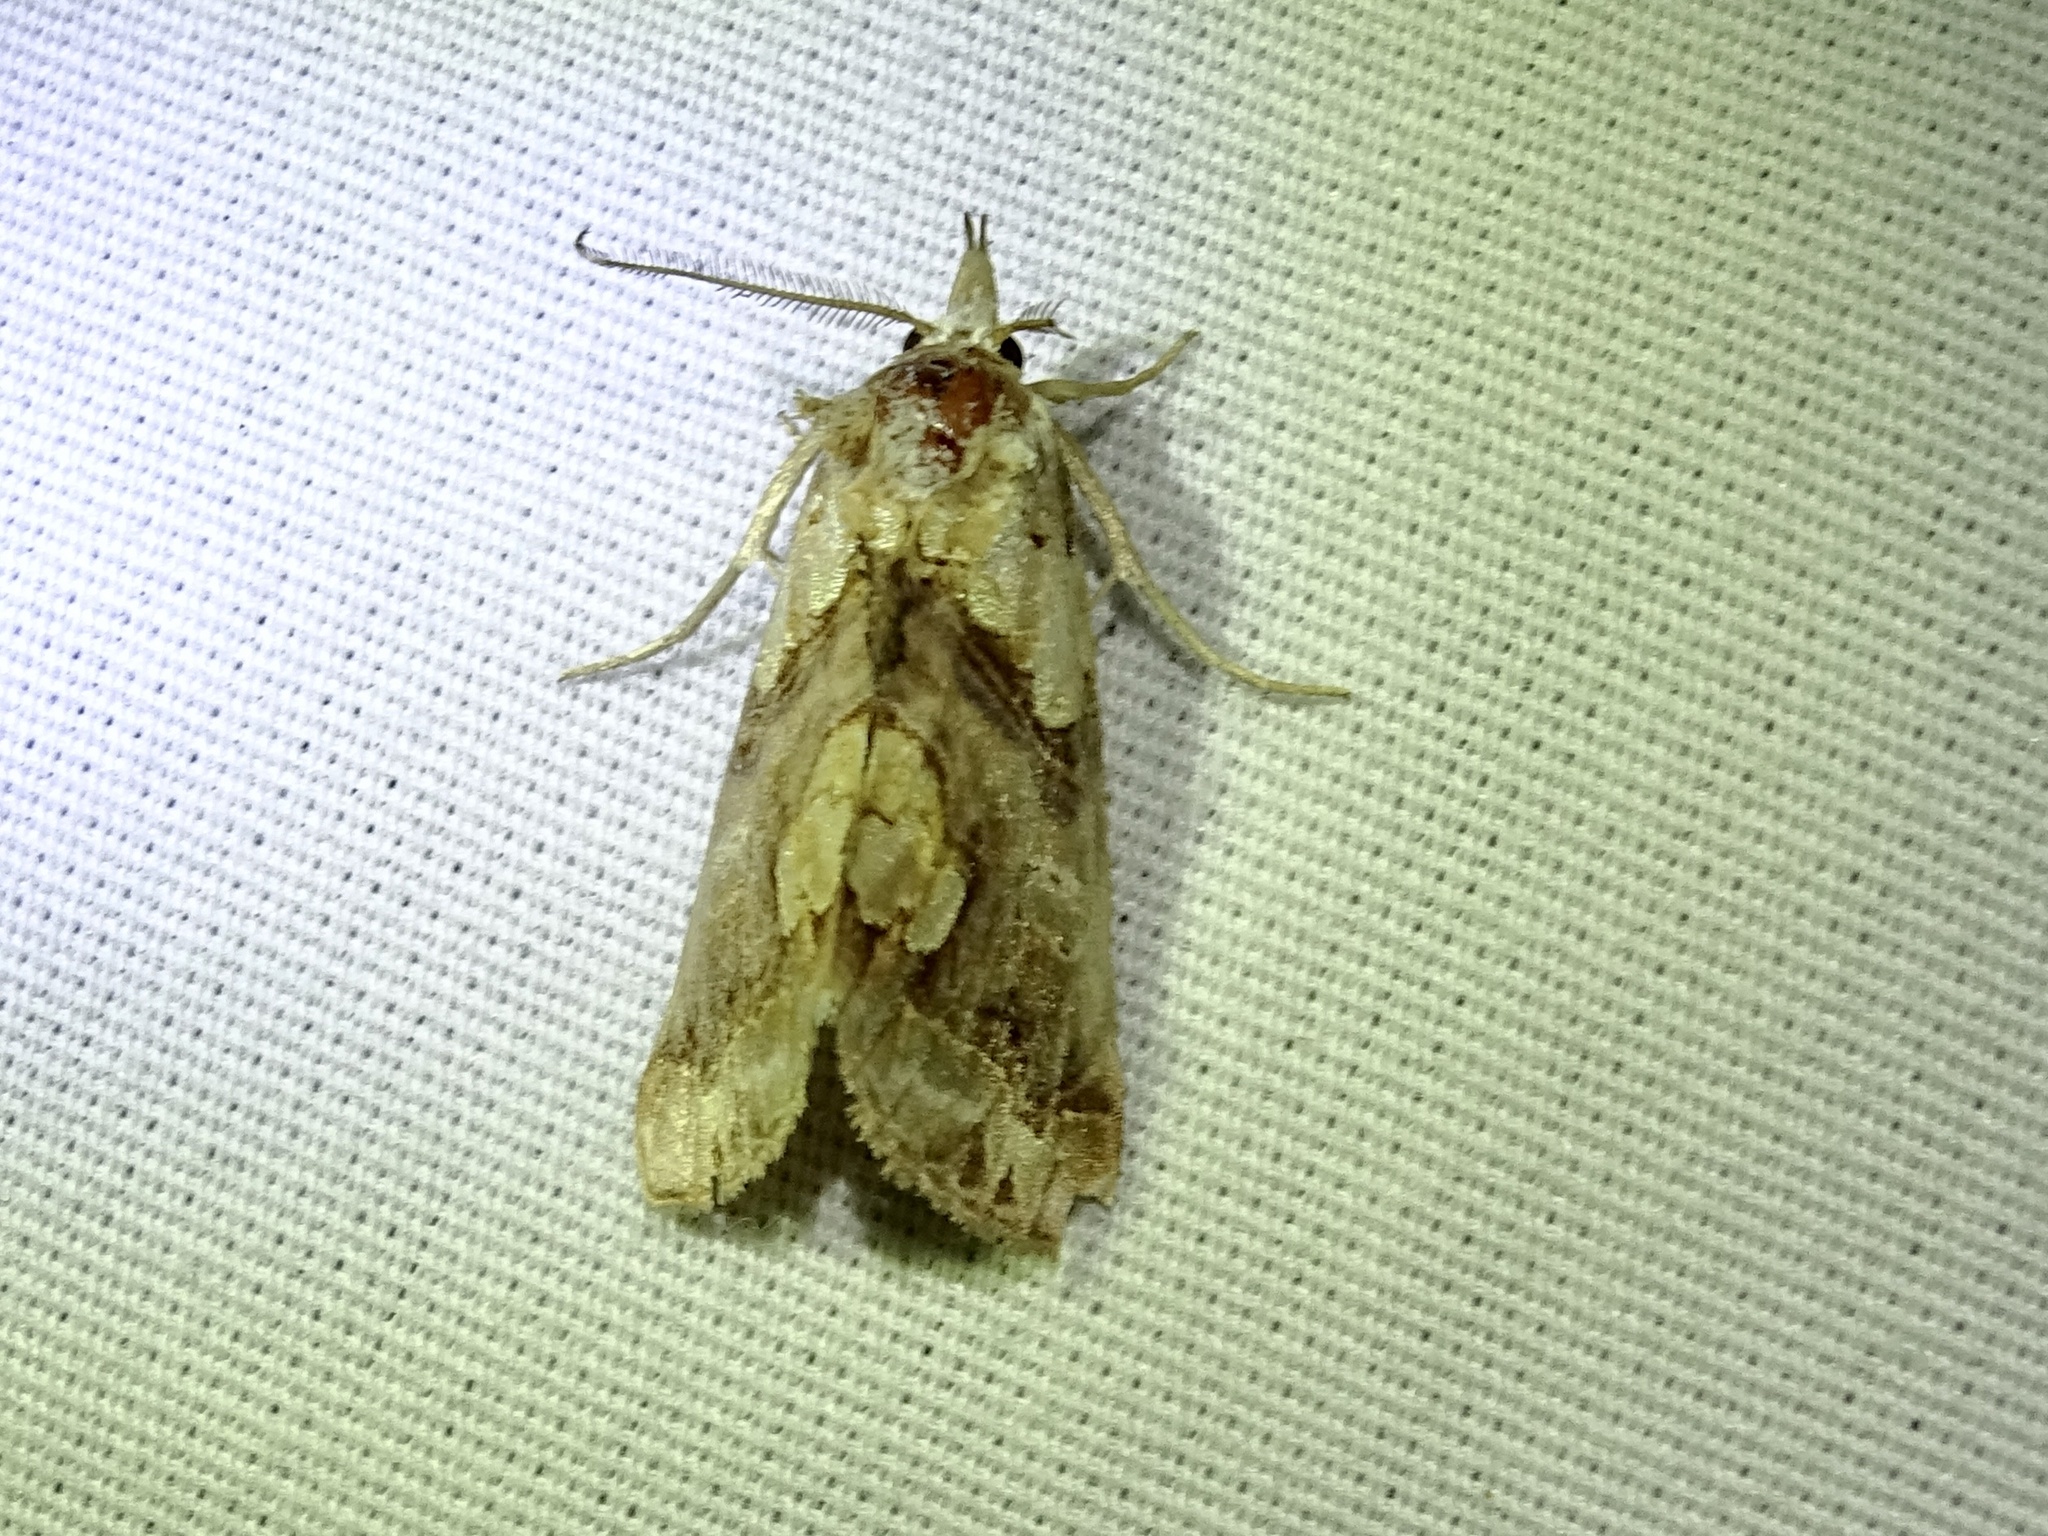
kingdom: Animalia
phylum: Arthropoda
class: Insecta
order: Lepidoptera
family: Erebidae
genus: Plusiodonta
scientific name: Plusiodonta compressipalpis
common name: Moonseed moth
